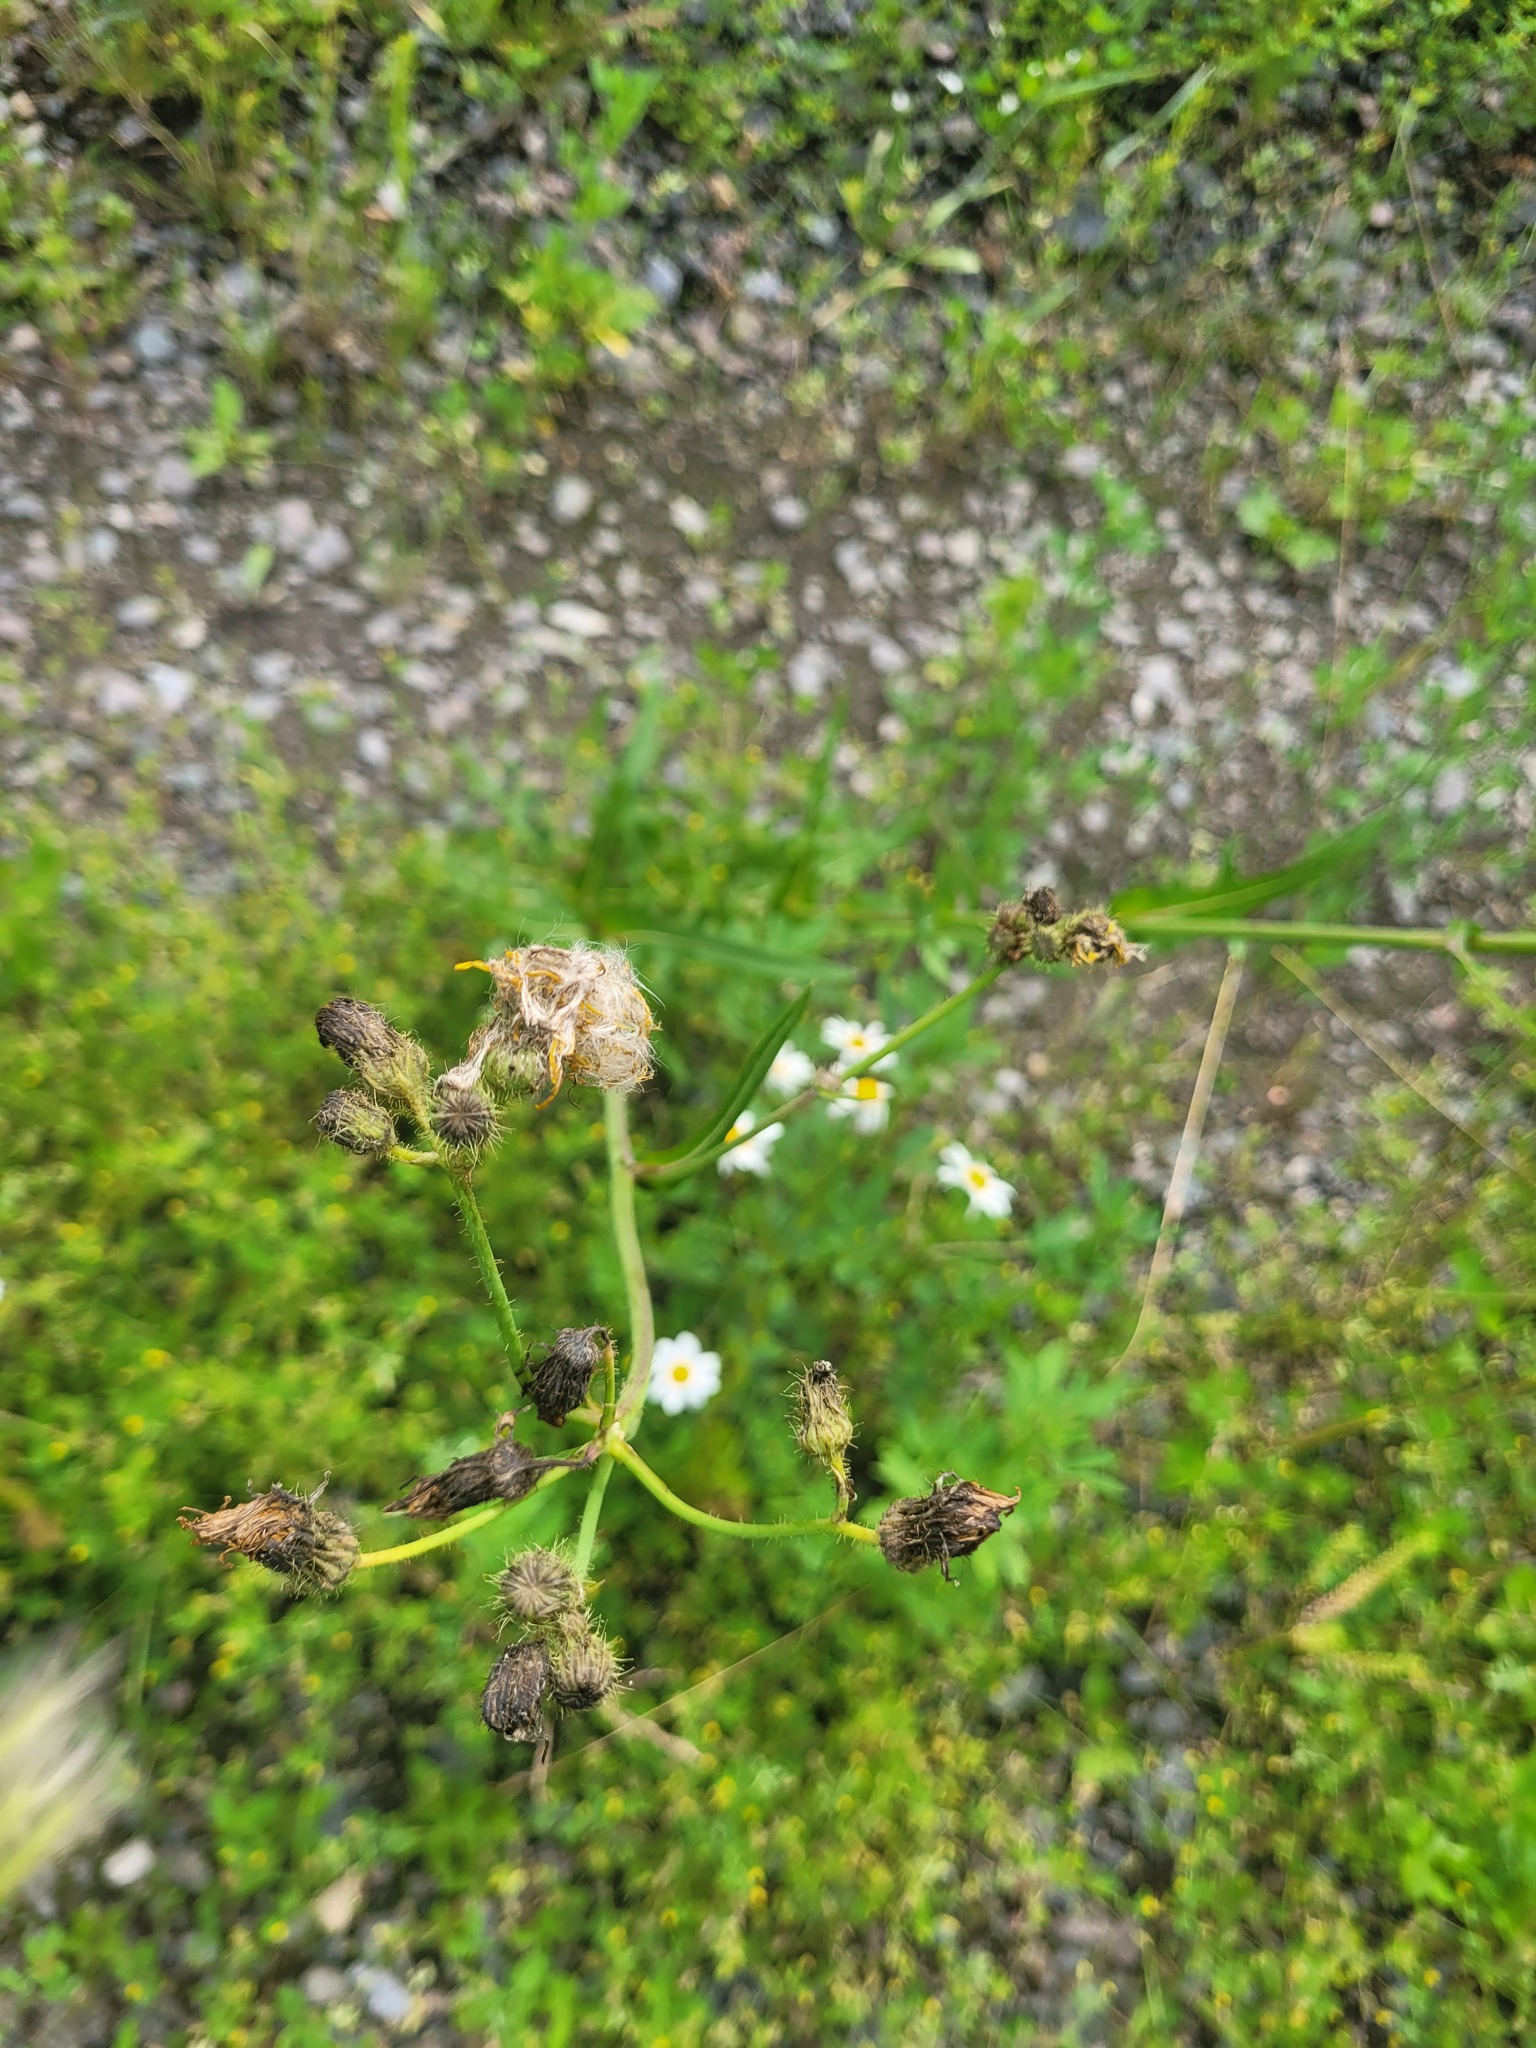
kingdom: Plantae
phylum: Tracheophyta
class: Magnoliopsida
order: Asterales
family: Asteraceae
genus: Sonchus
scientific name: Sonchus arvensis
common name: Perennial sow-thistle
